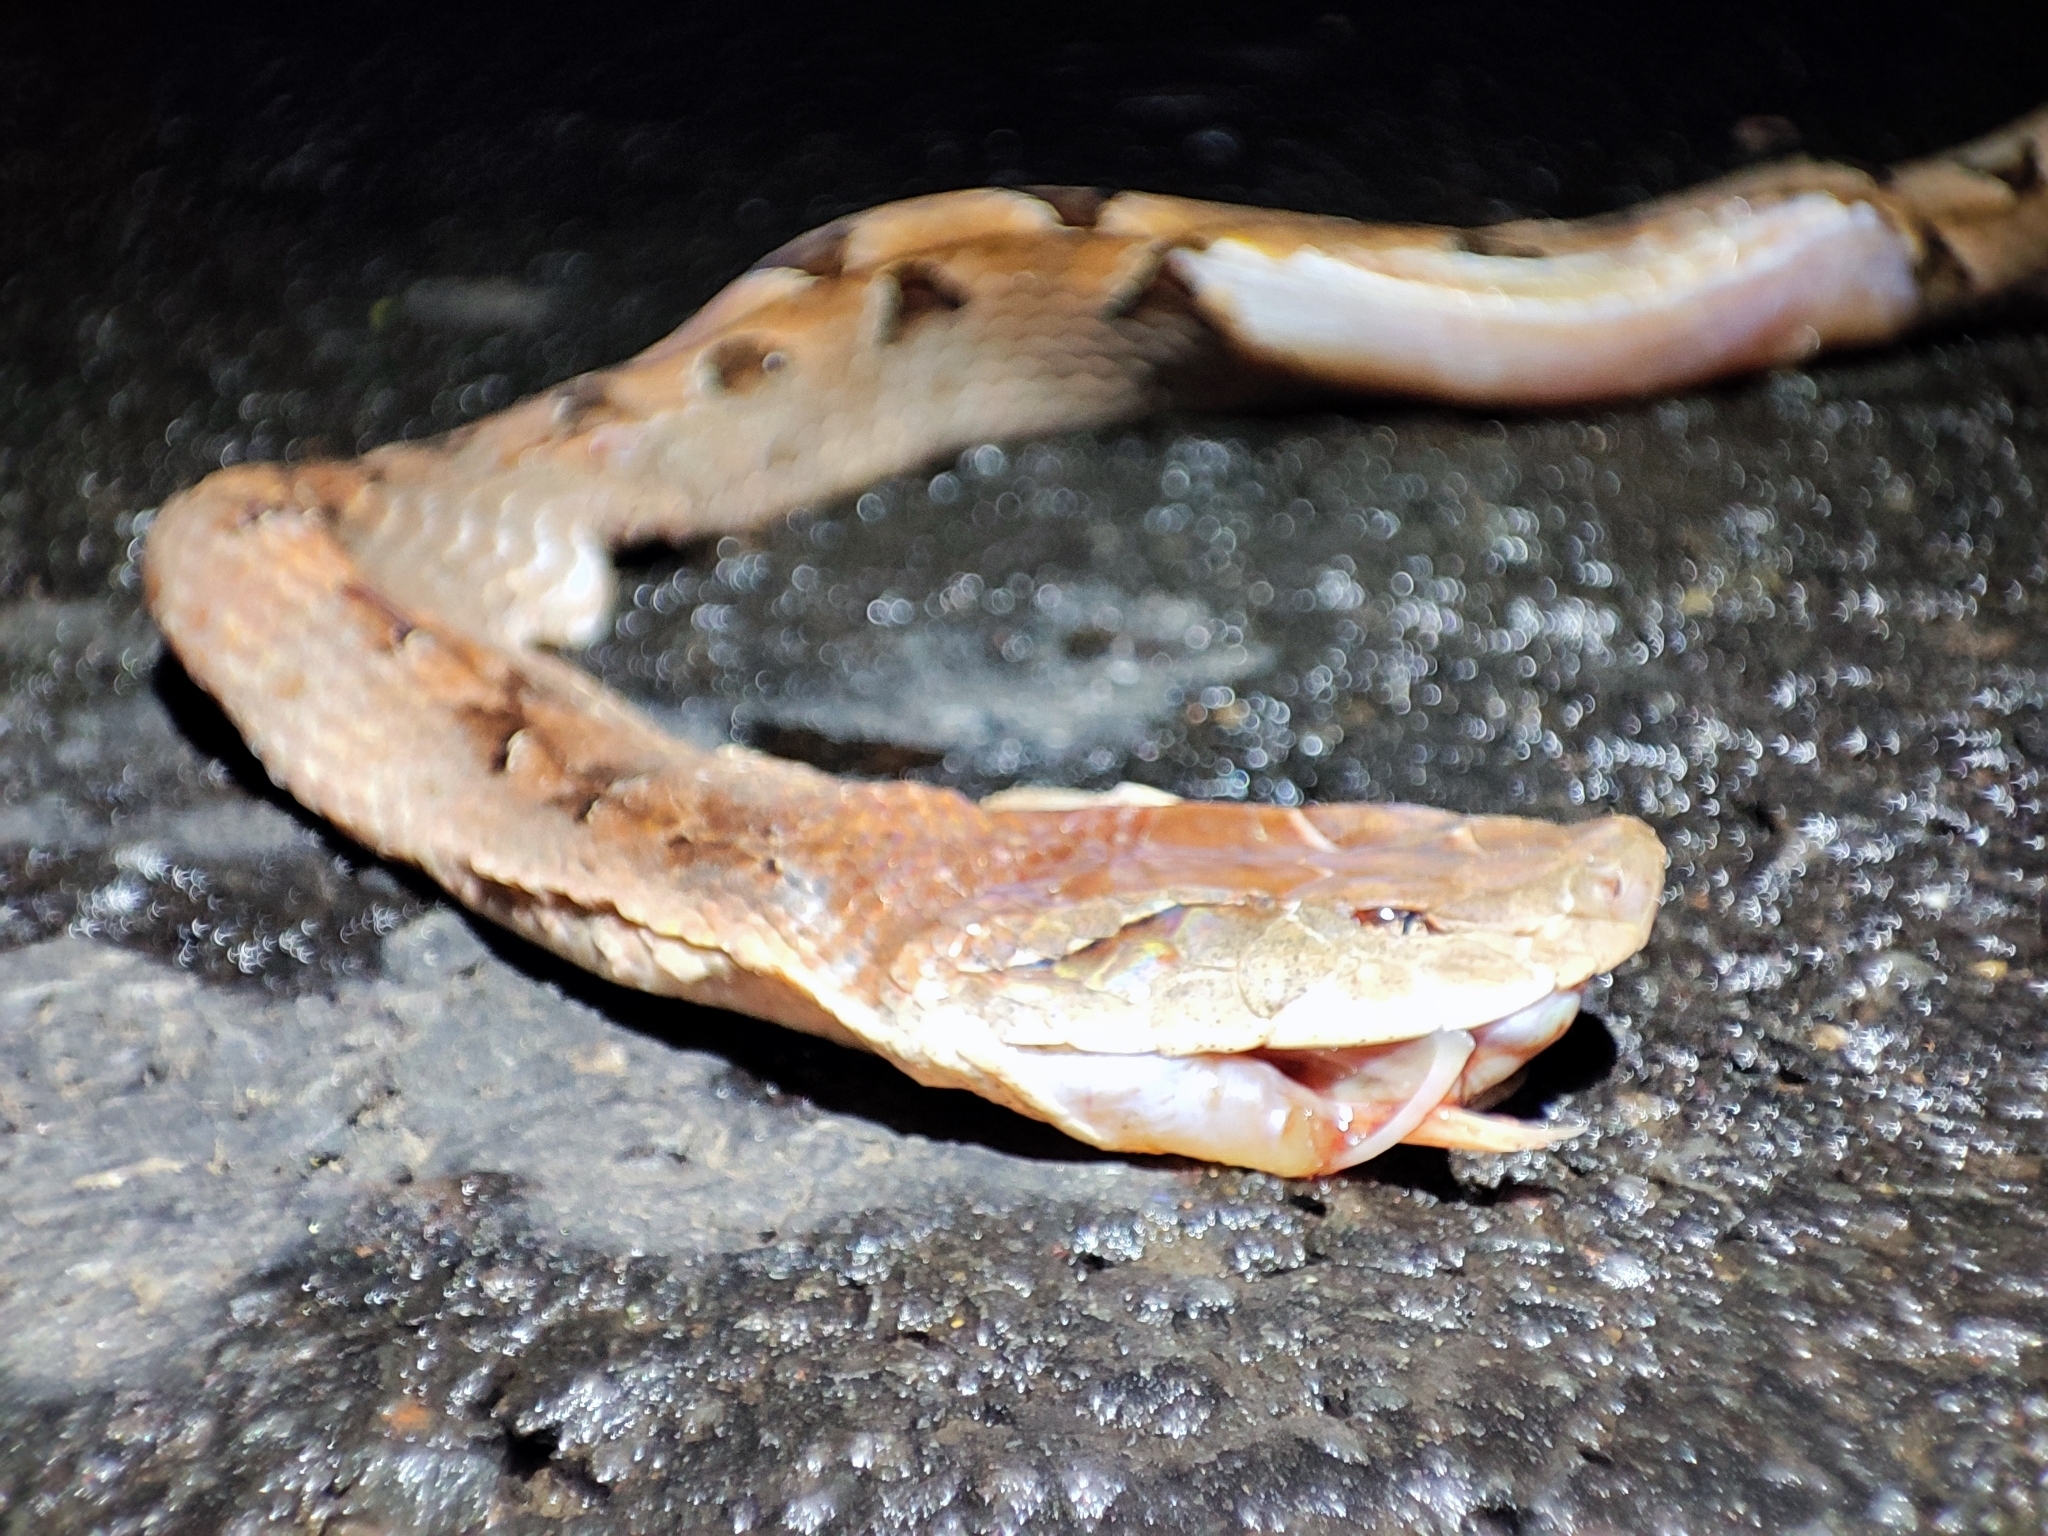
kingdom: Animalia
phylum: Chordata
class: Squamata
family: Viperidae
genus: Calloselasma
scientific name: Calloselasma rhodostoma
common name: Malayan pit viper
